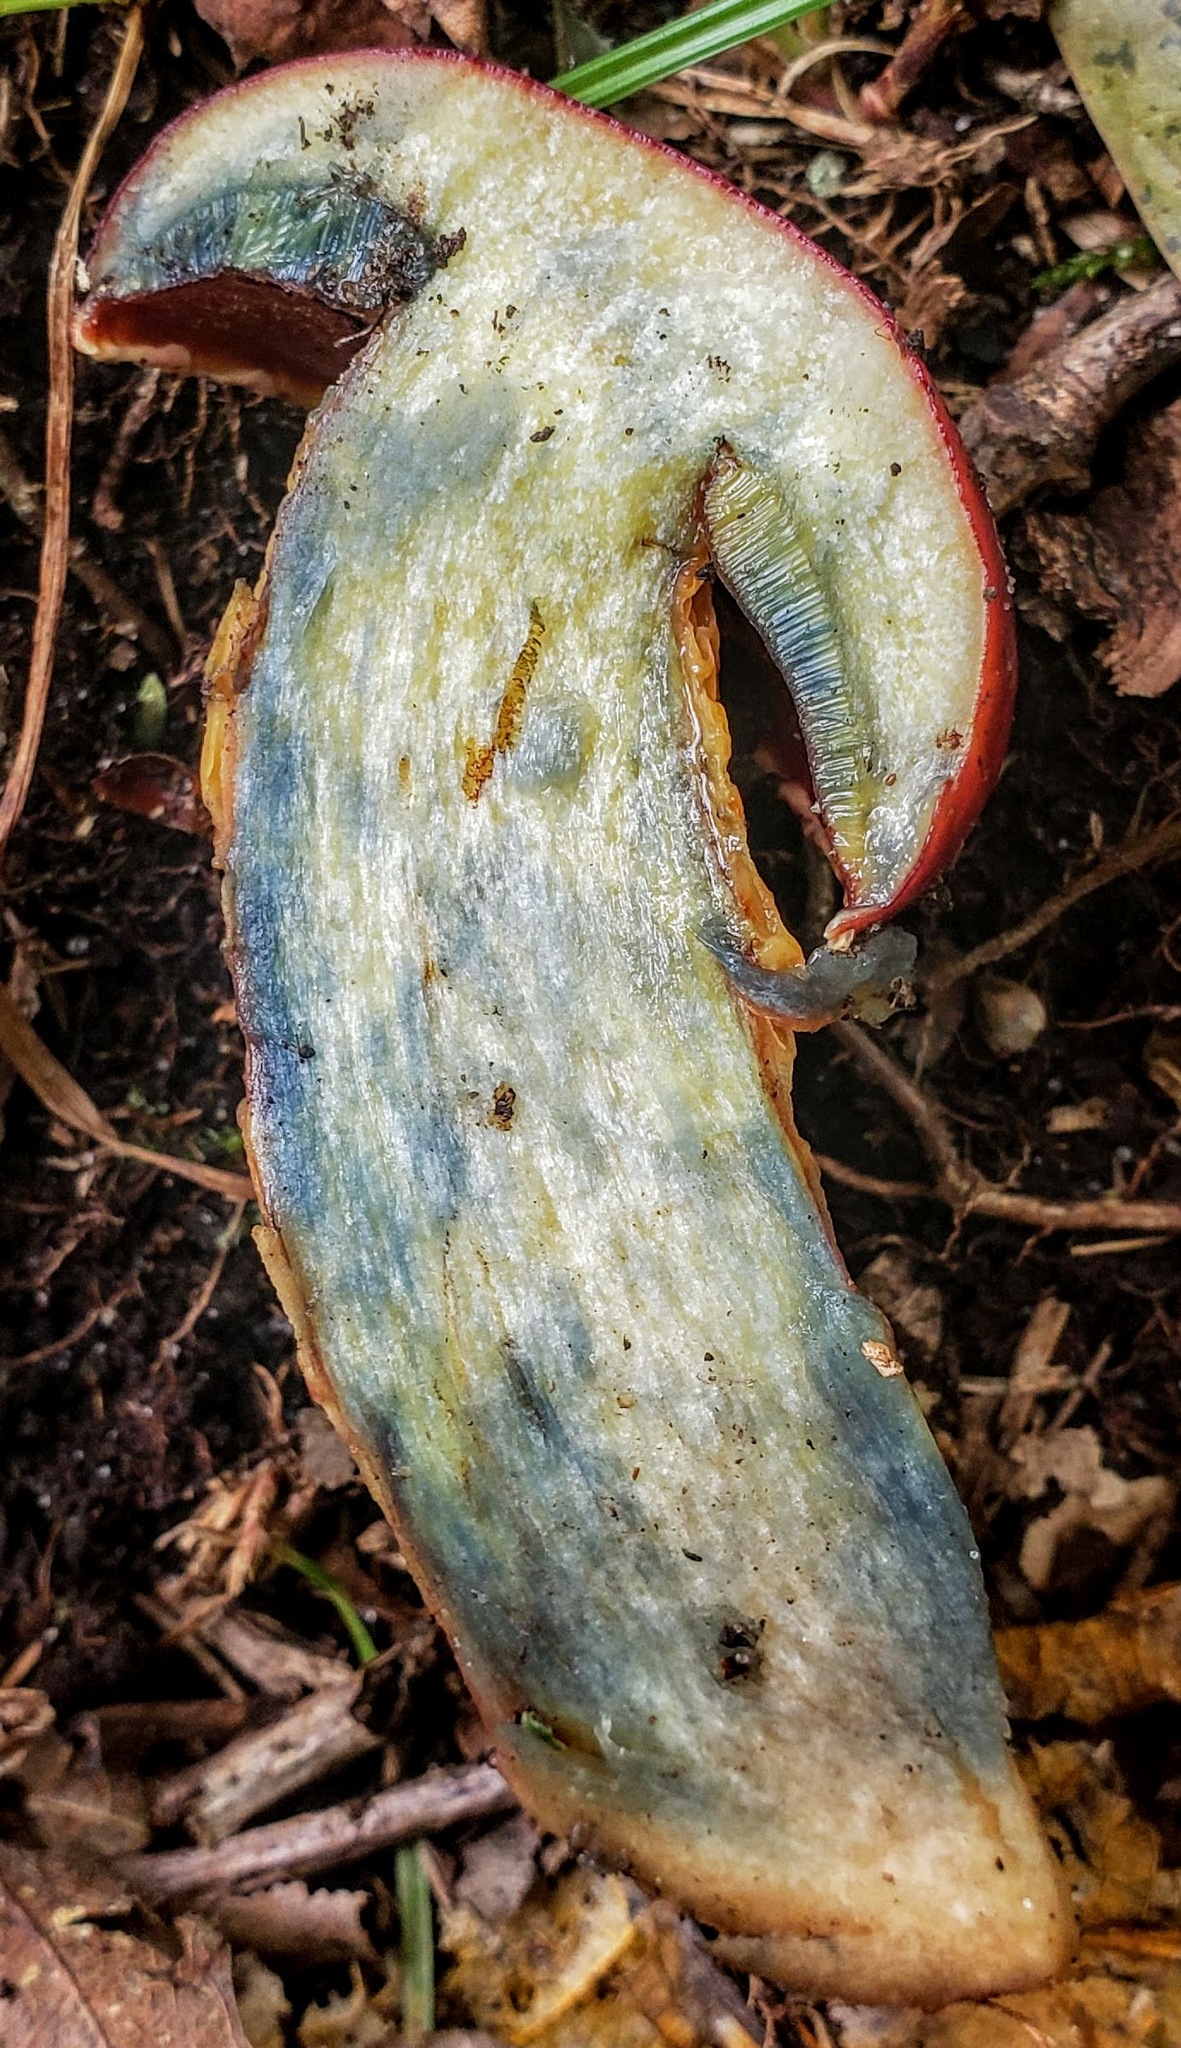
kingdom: Fungi
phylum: Basidiomycota
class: Agaricomycetes
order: Boletales
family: Boletaceae
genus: Butyriboletus
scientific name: Butyriboletus frostii
